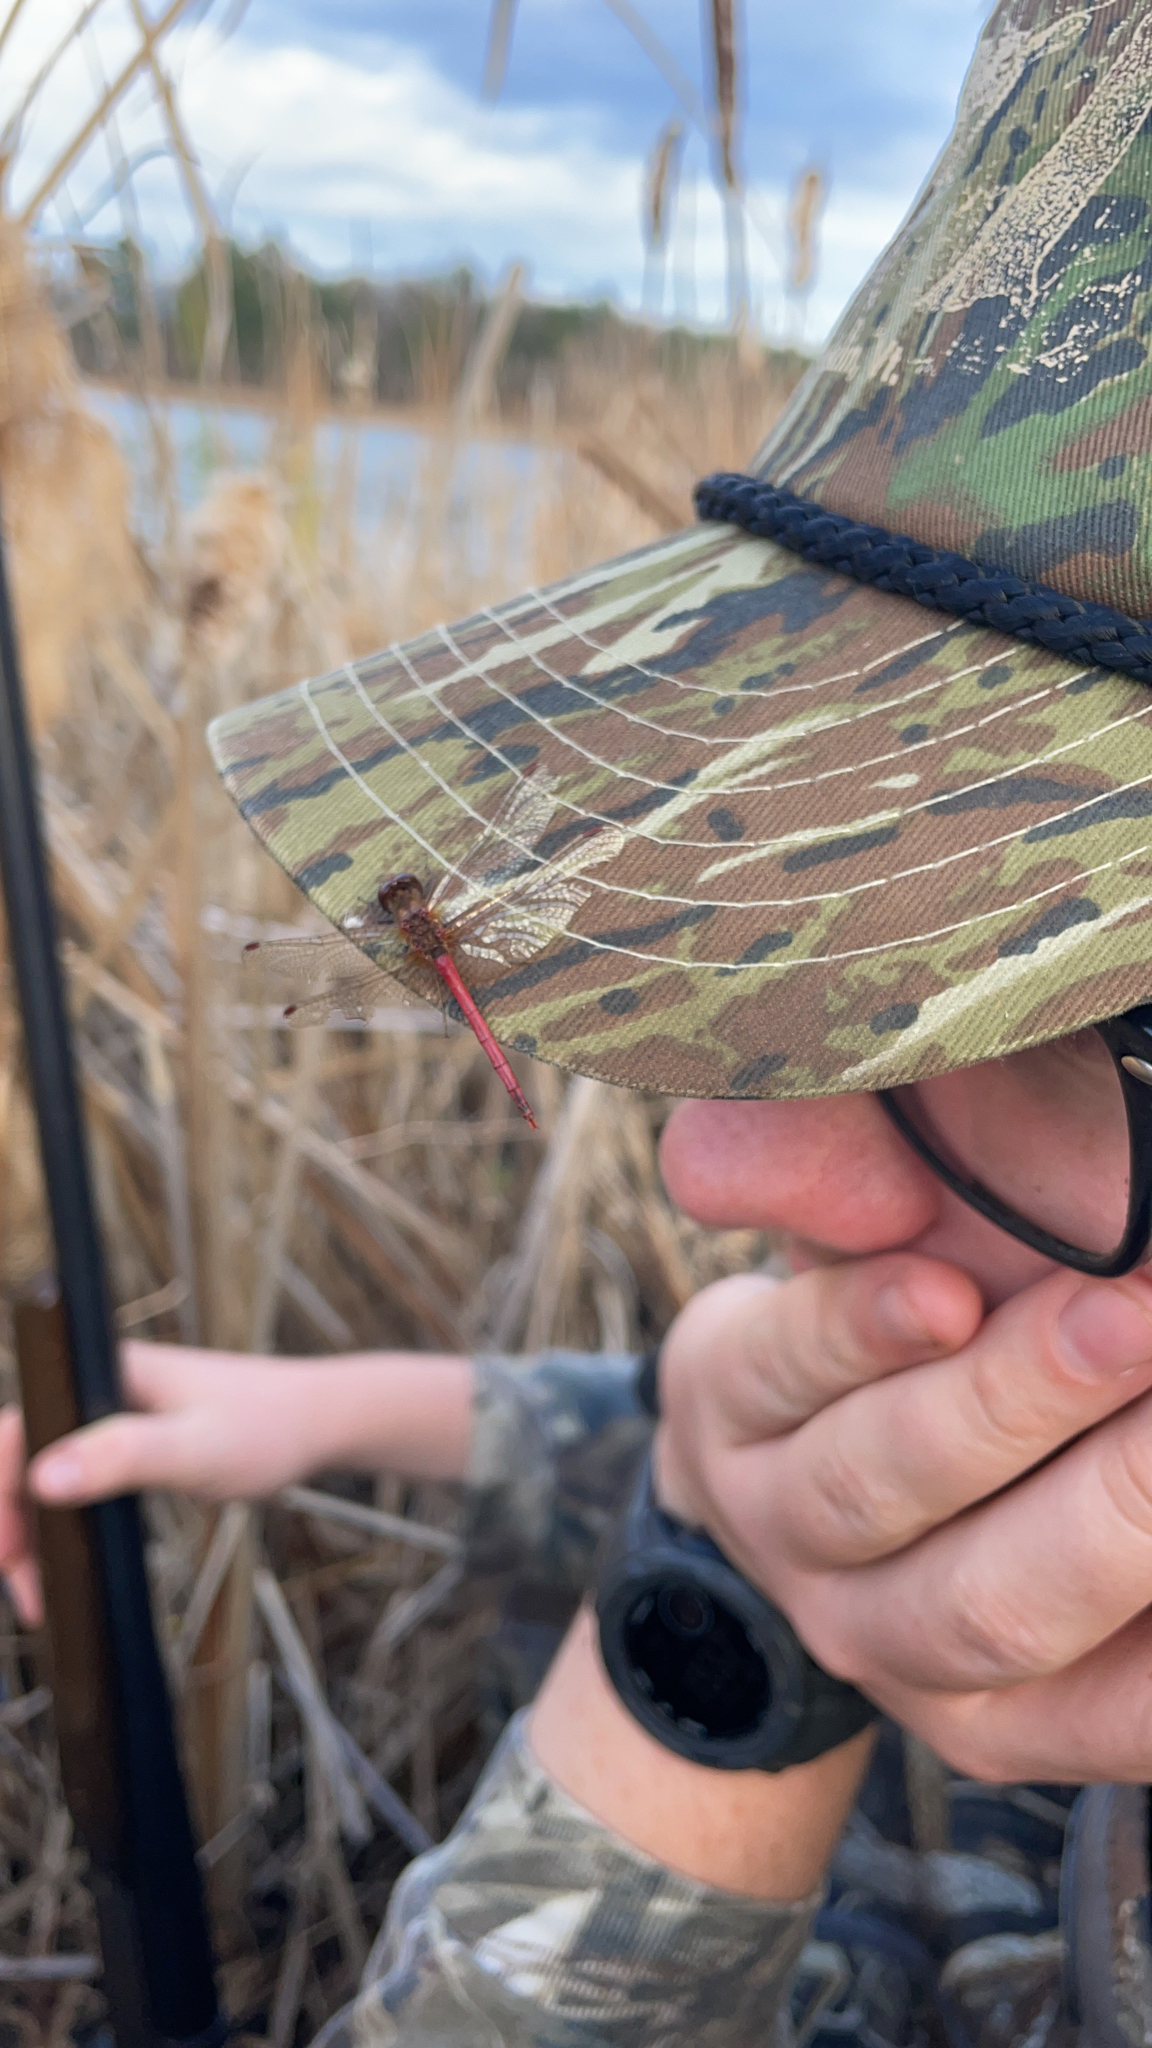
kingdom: Animalia
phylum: Arthropoda
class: Insecta
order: Odonata
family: Libellulidae
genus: Sympetrum
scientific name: Sympetrum vicinum
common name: Autumn meadowhawk
